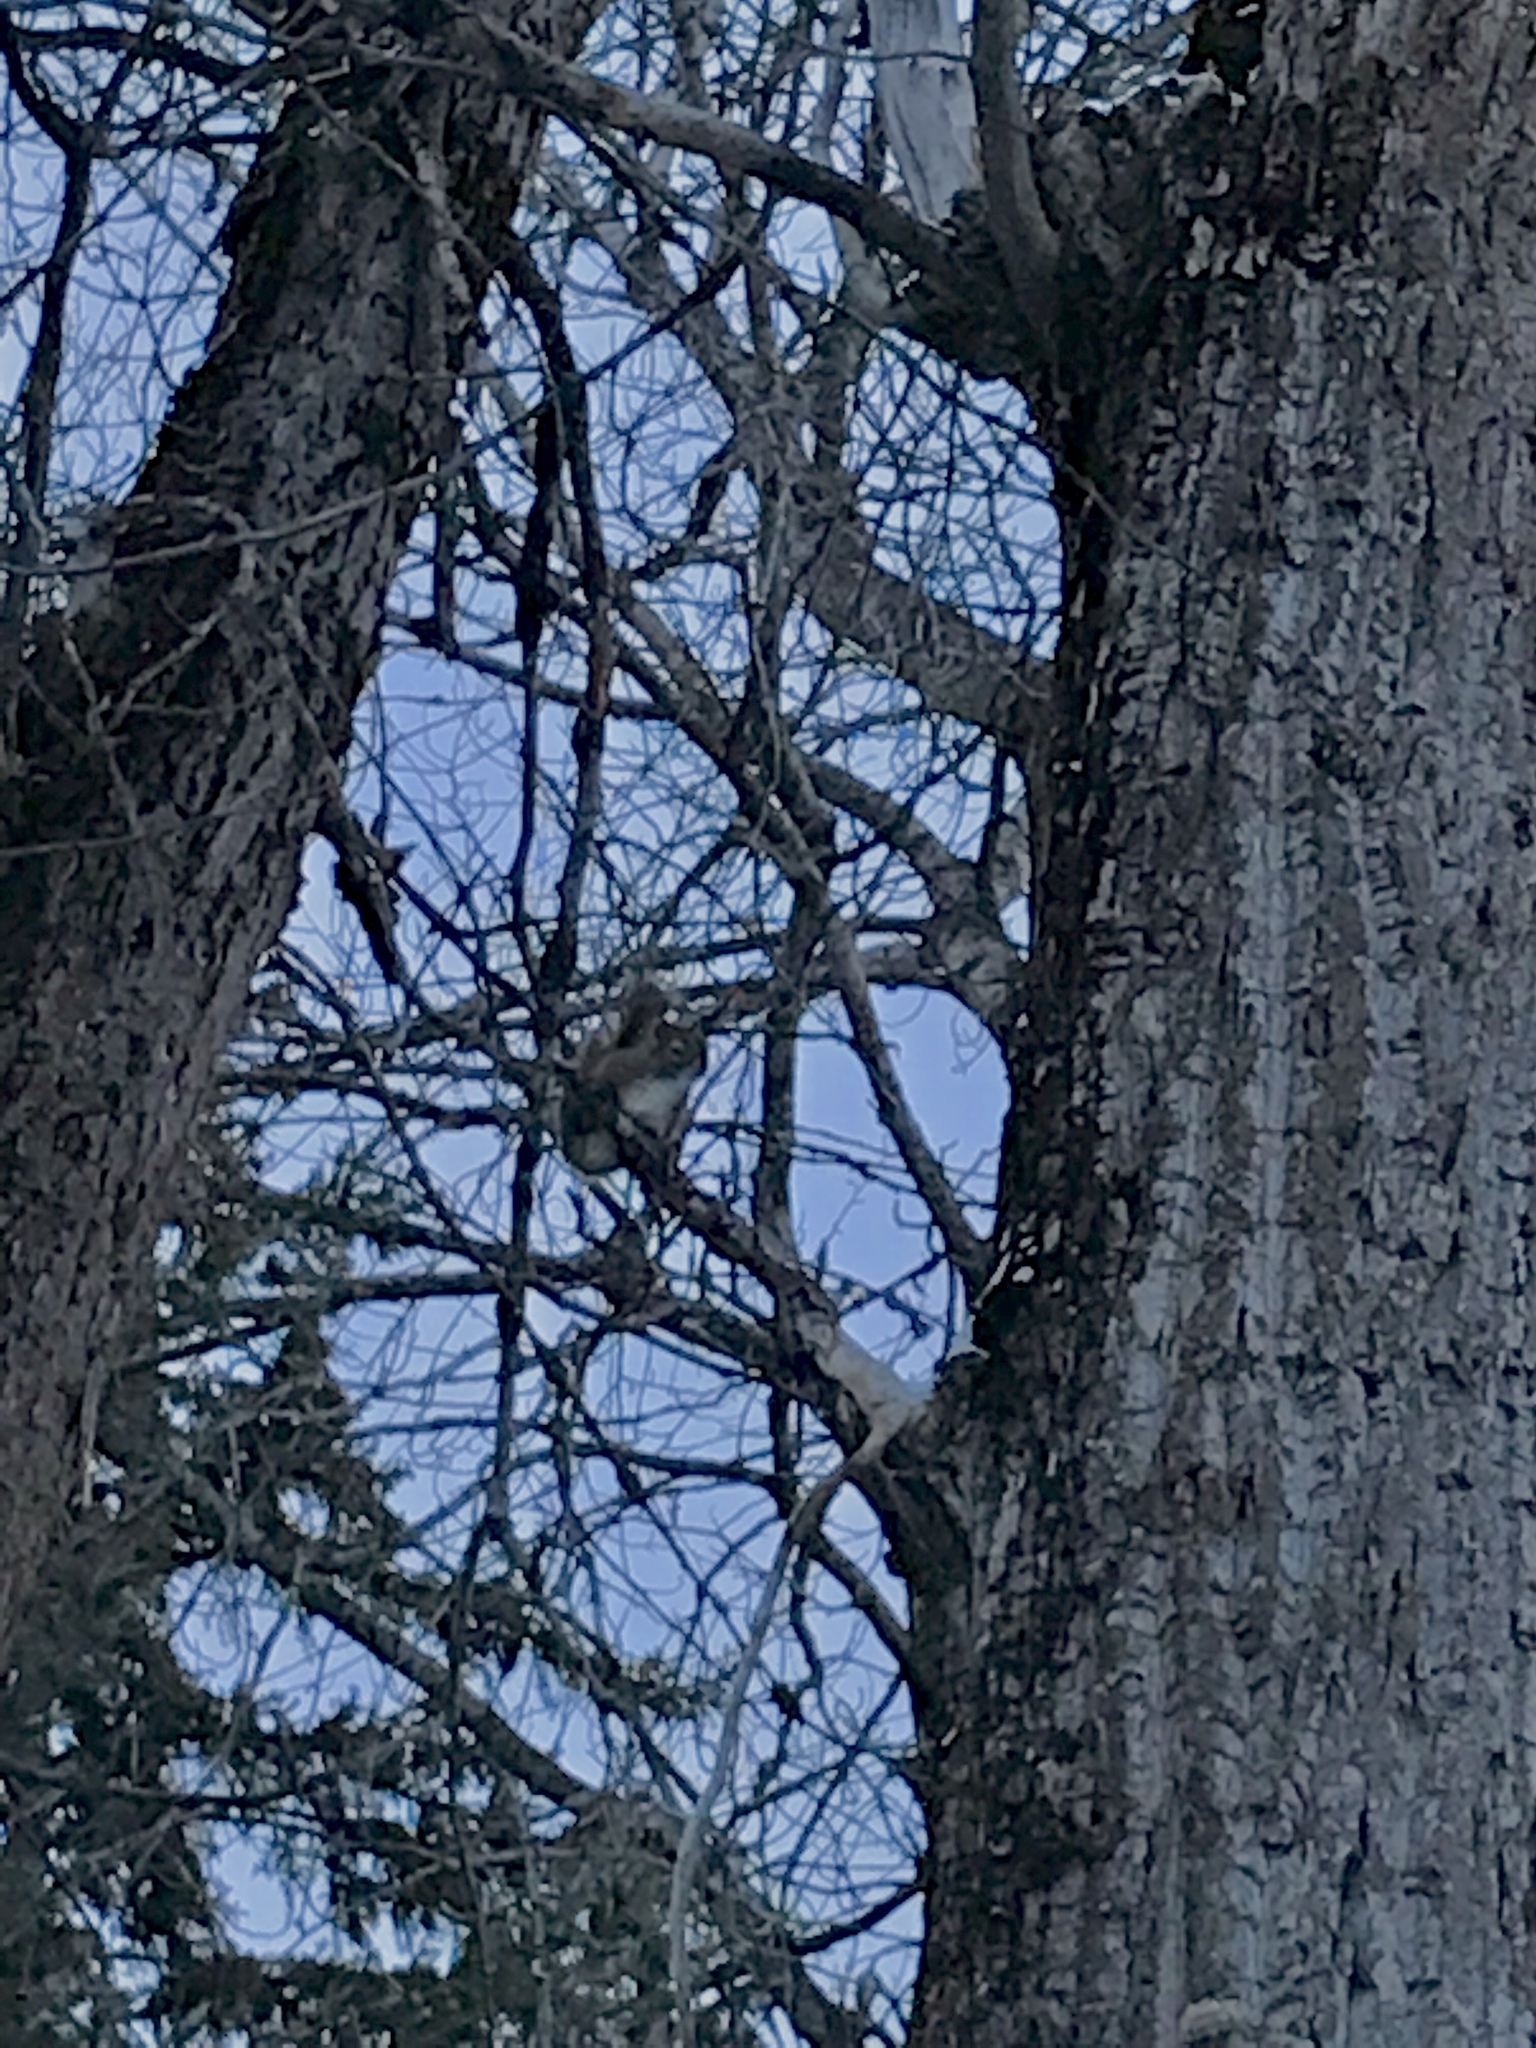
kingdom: Animalia
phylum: Chordata
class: Mammalia
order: Rodentia
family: Sciuridae
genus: Tamiasciurus
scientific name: Tamiasciurus hudsonicus
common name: Red squirrel
